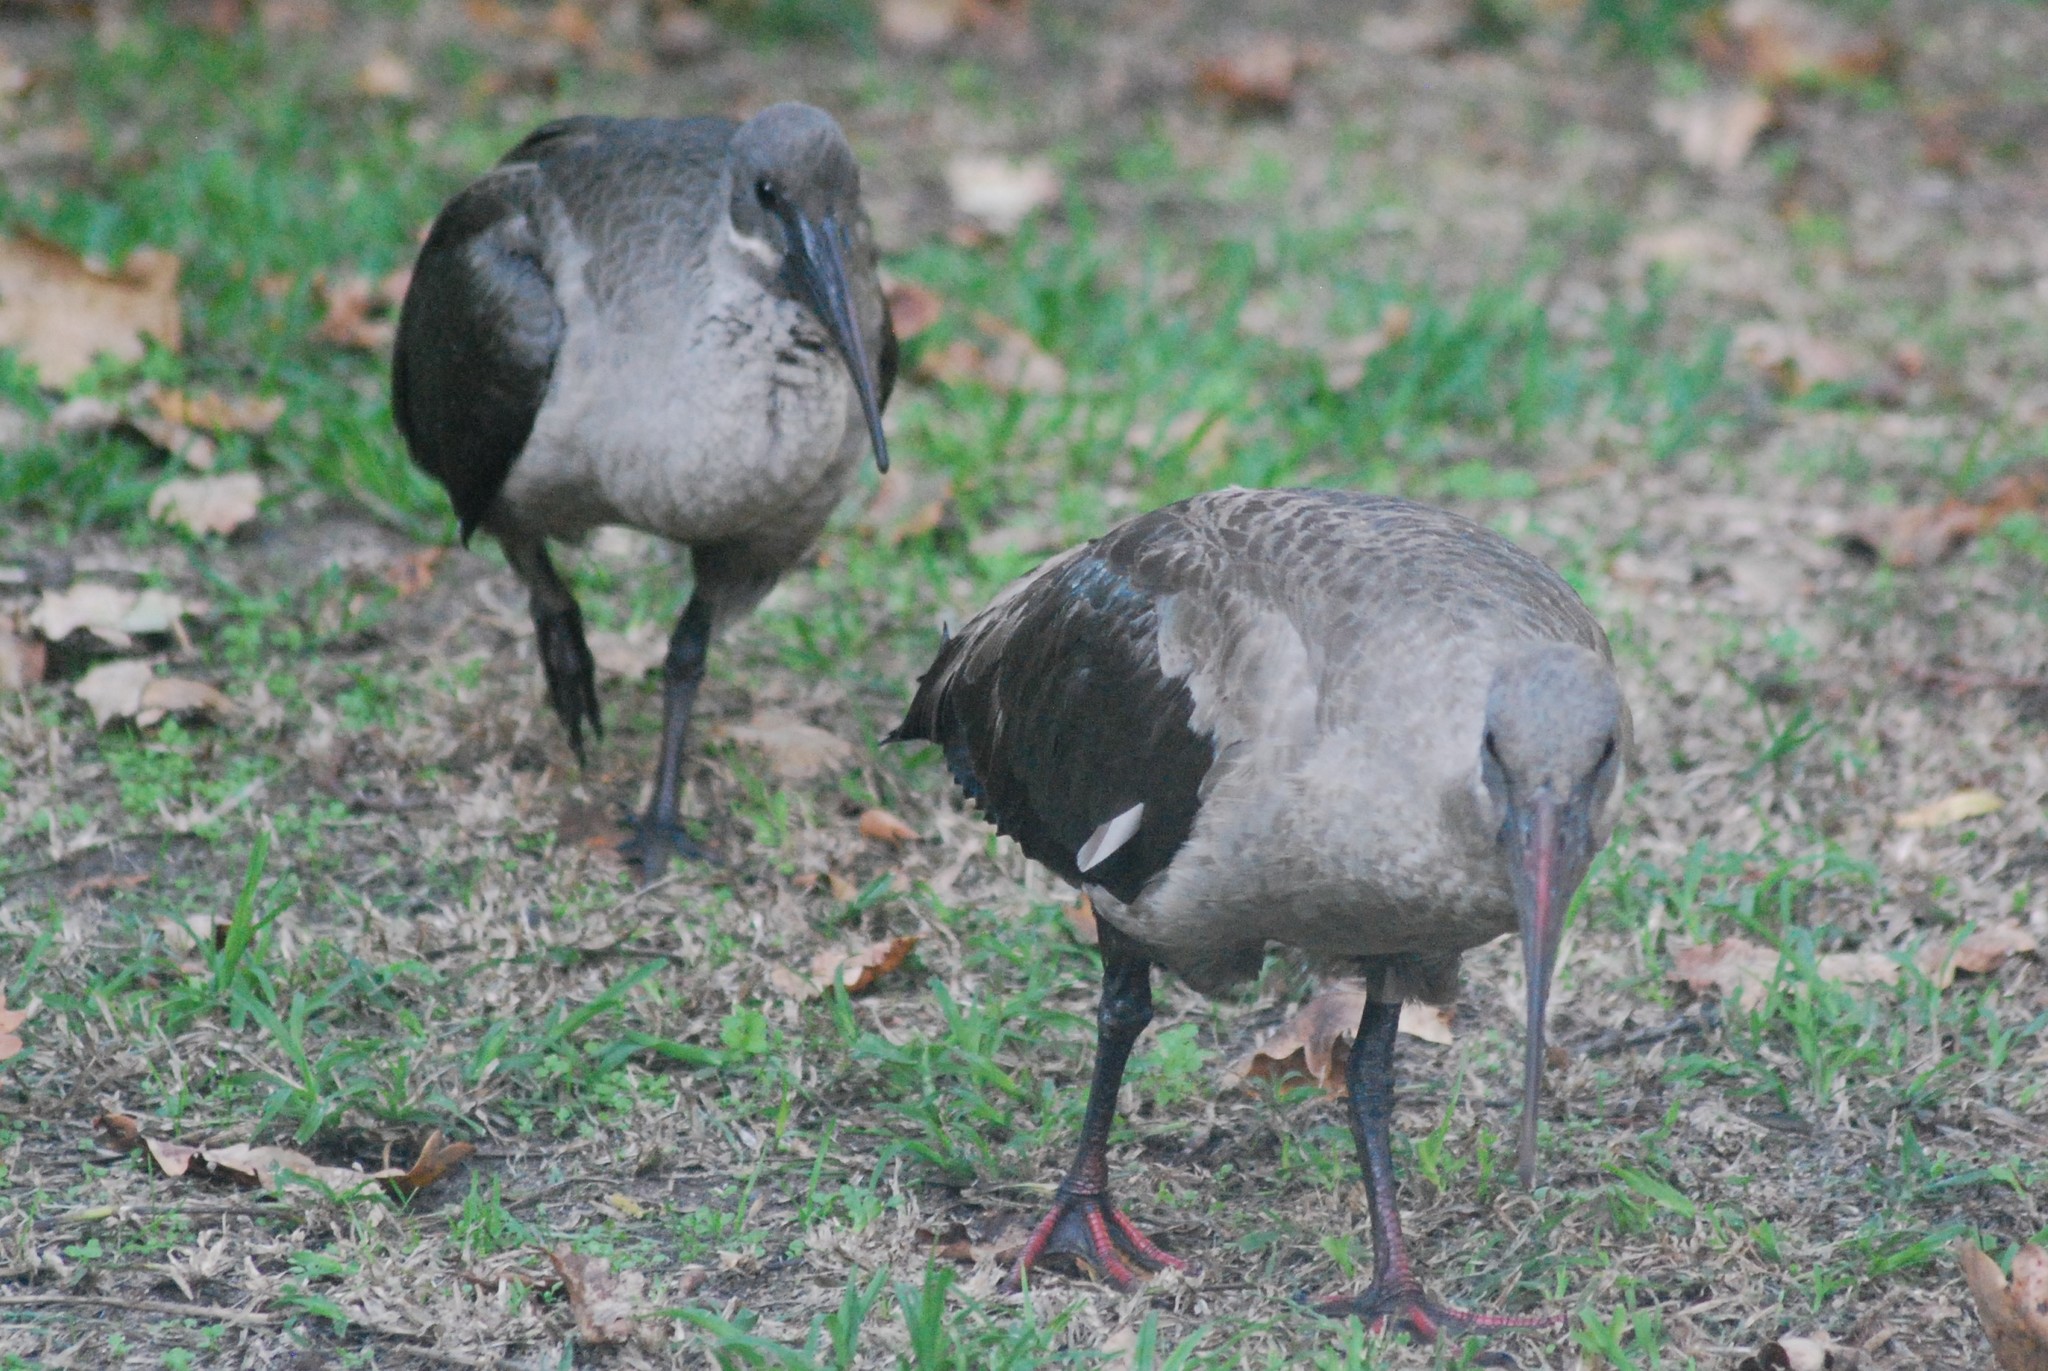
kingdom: Animalia
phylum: Chordata
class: Aves
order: Pelecaniformes
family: Threskiornithidae
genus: Bostrychia
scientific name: Bostrychia hagedash
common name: Hadada ibis
